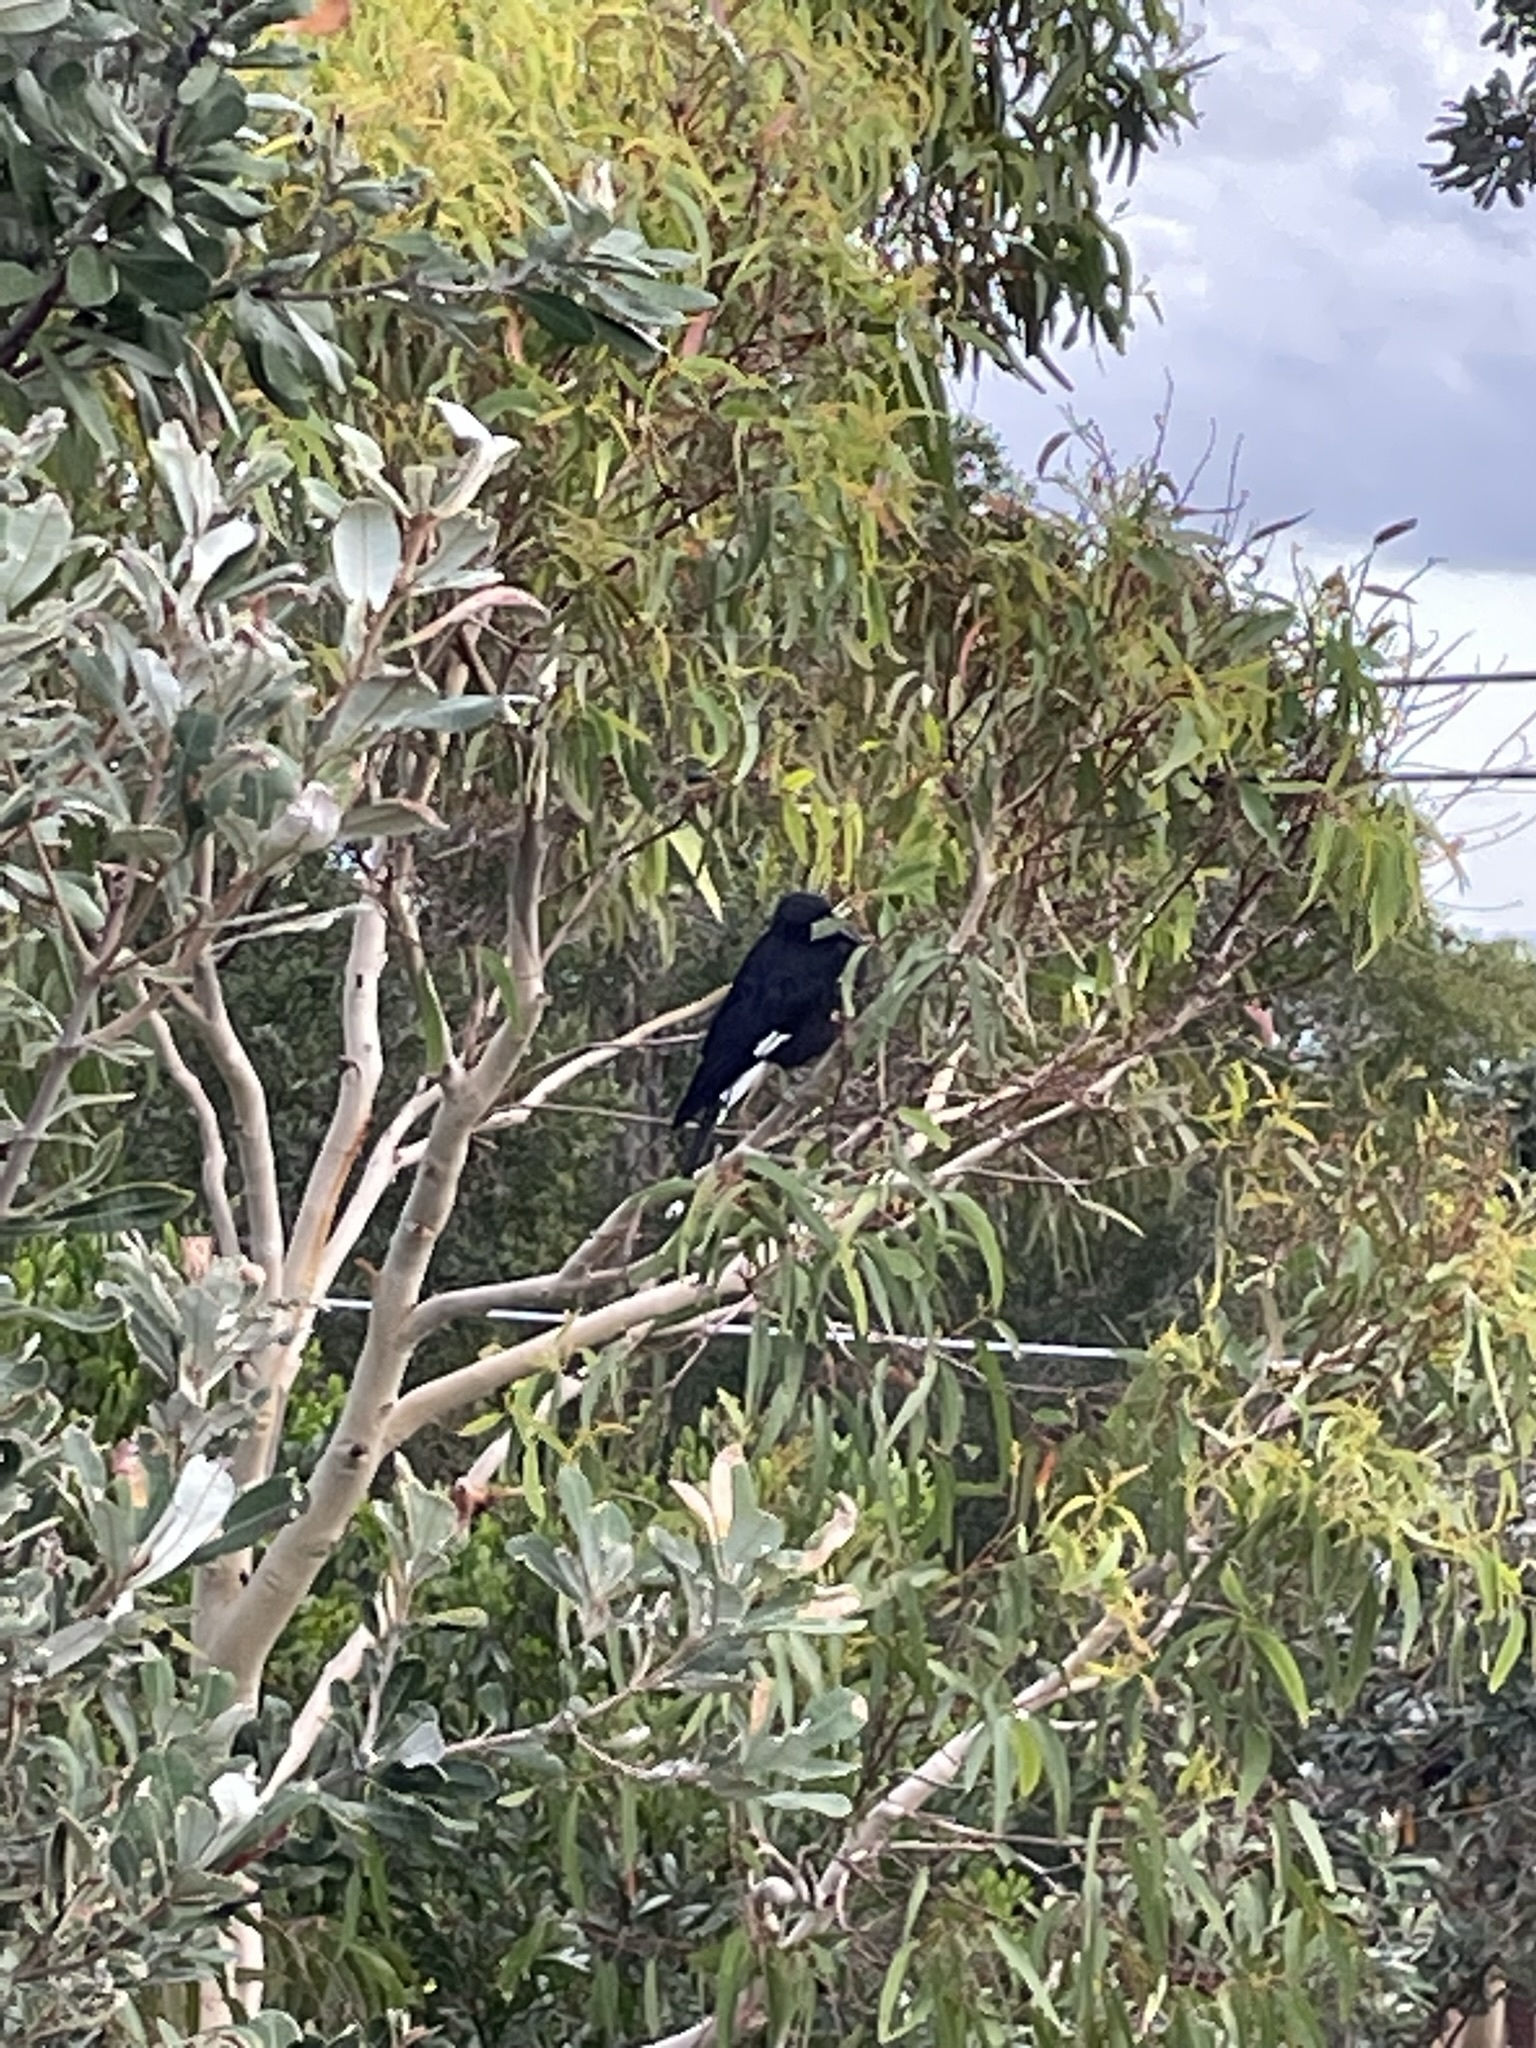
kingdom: Animalia
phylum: Chordata
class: Aves
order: Passeriformes
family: Cracticidae
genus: Strepera
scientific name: Strepera graculina
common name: Pied currawong
